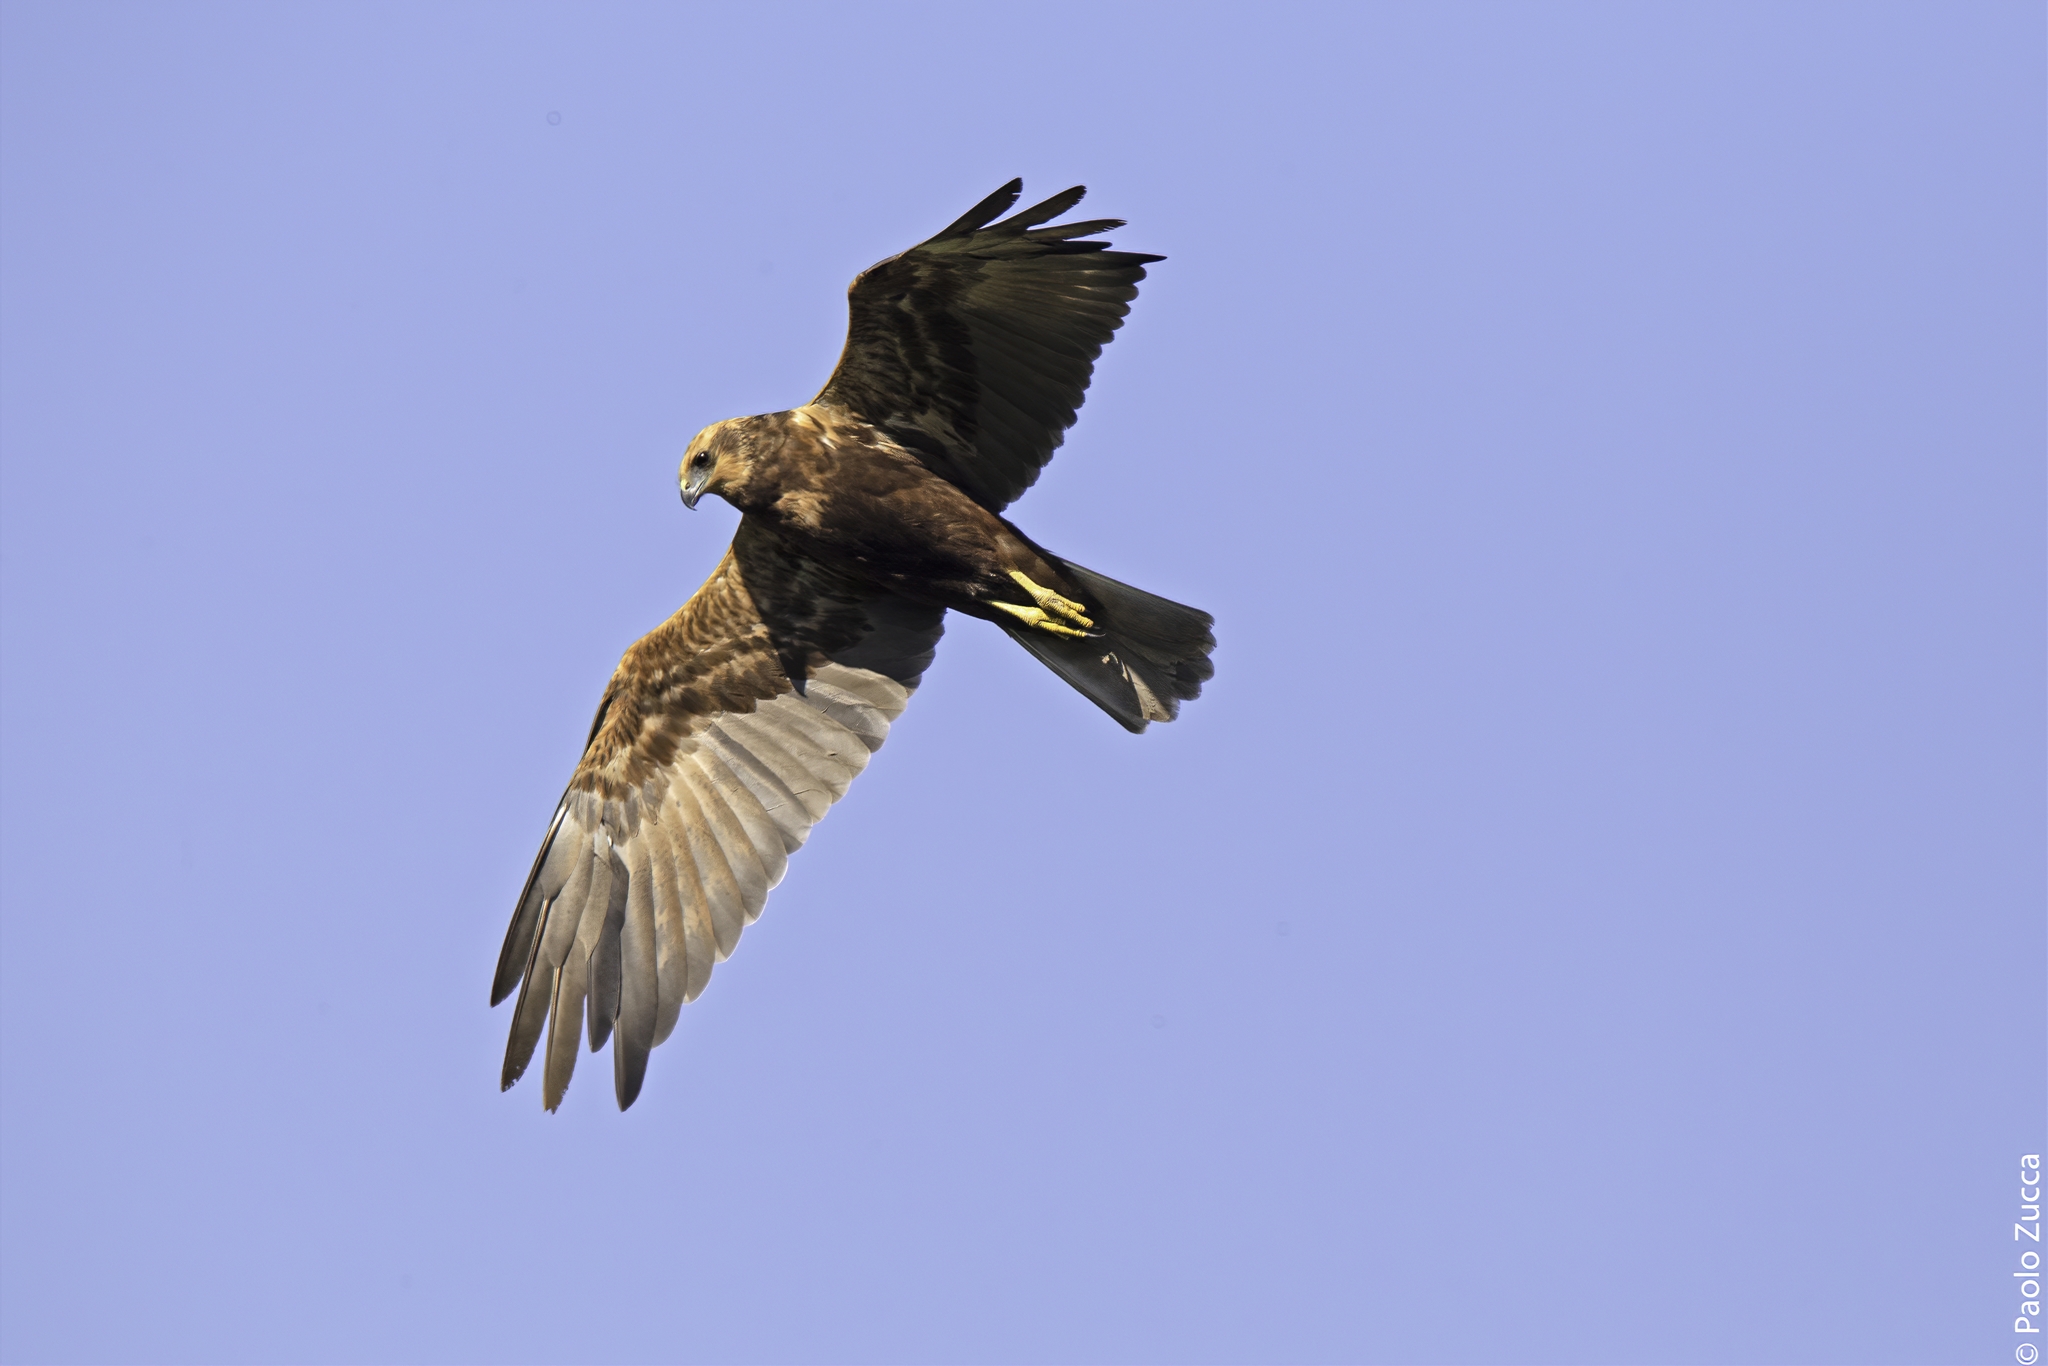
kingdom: Animalia
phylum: Chordata
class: Aves
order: Accipitriformes
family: Accipitridae
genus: Circus
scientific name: Circus aeruginosus
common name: Western marsh harrier
